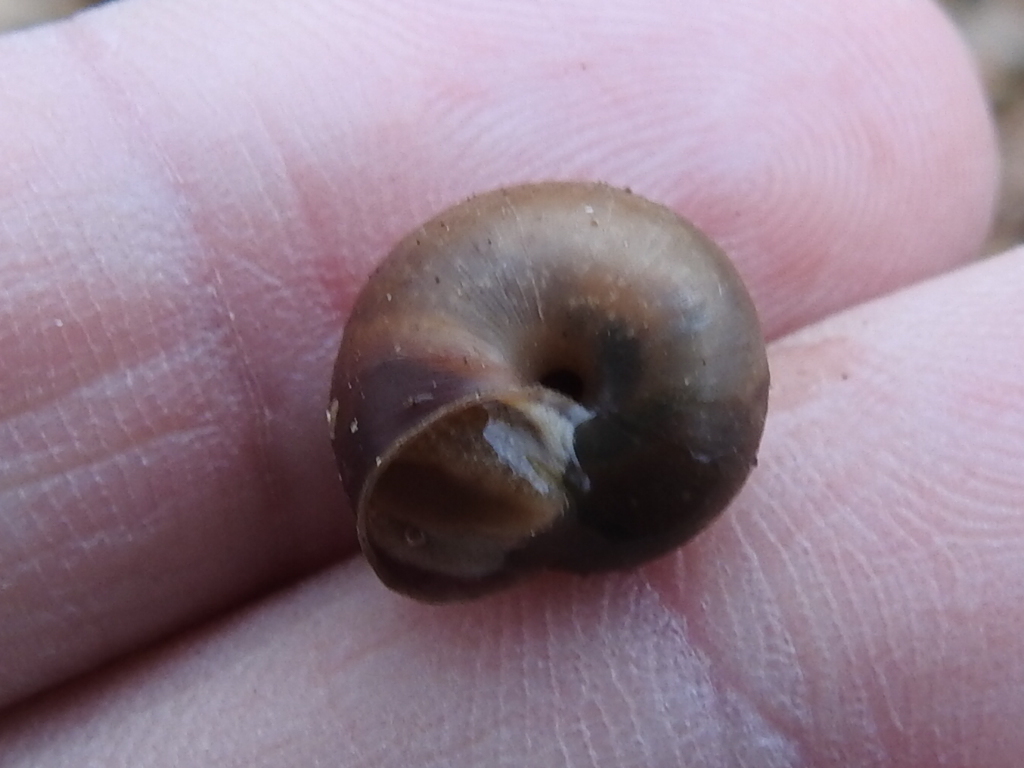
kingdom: Animalia
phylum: Mollusca
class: Gastropoda
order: Stylommatophora
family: Camaenidae
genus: Bradybaena
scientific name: Bradybaena similaris
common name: Asian trampsnail
